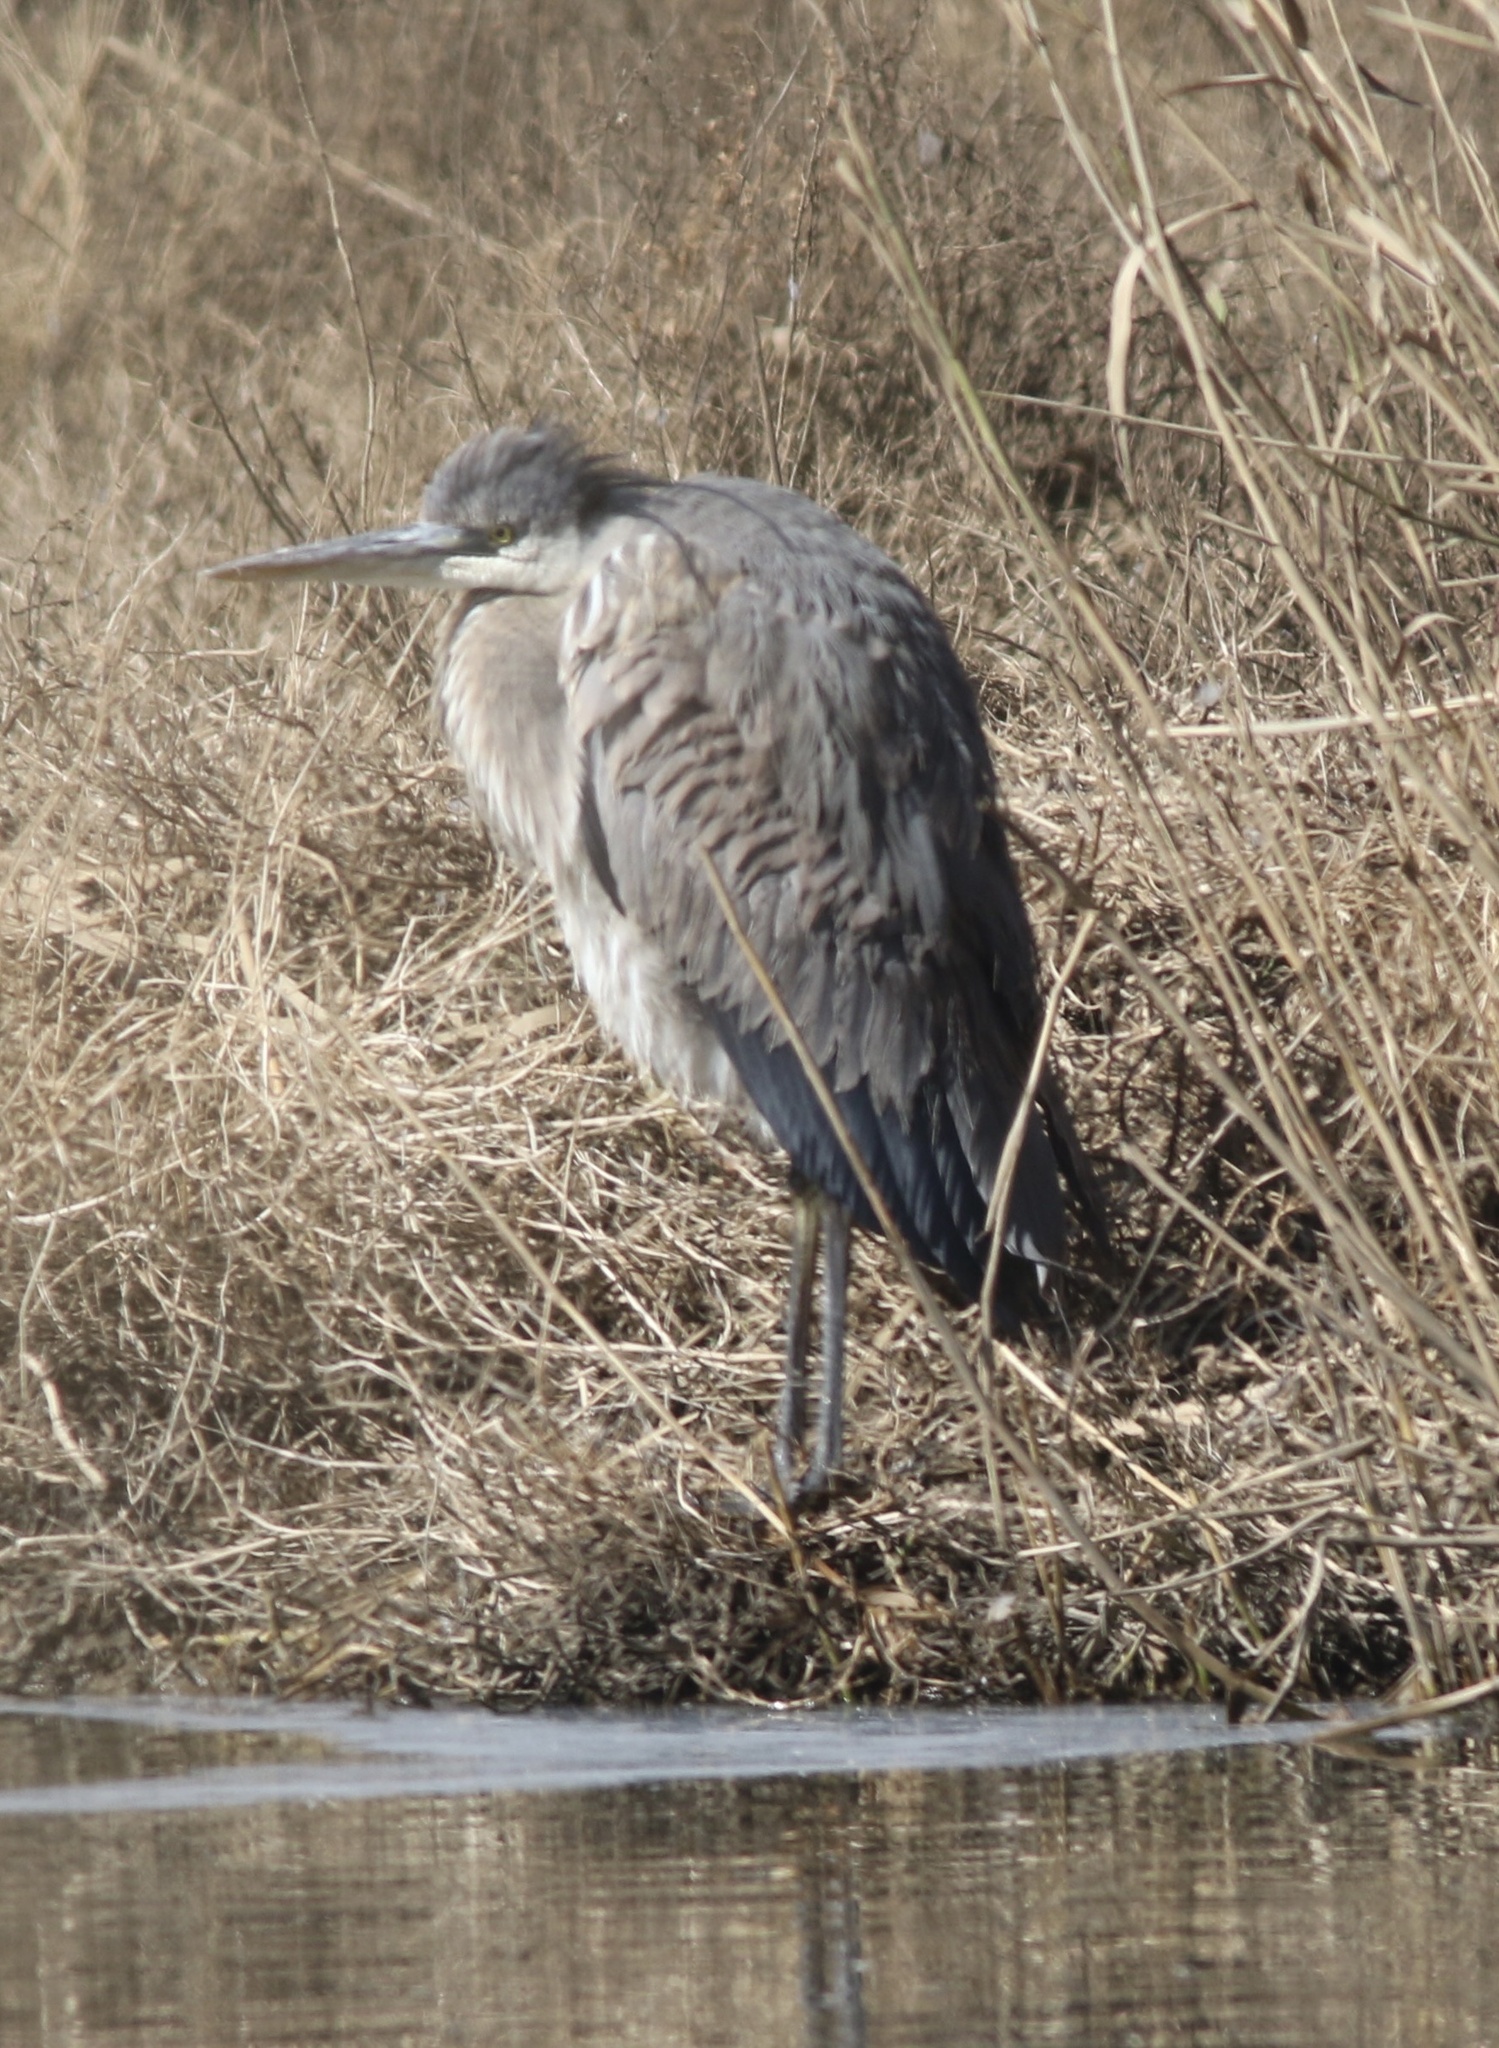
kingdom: Animalia
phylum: Chordata
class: Aves
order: Pelecaniformes
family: Ardeidae
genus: Ardea
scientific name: Ardea herodias
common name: Great blue heron
